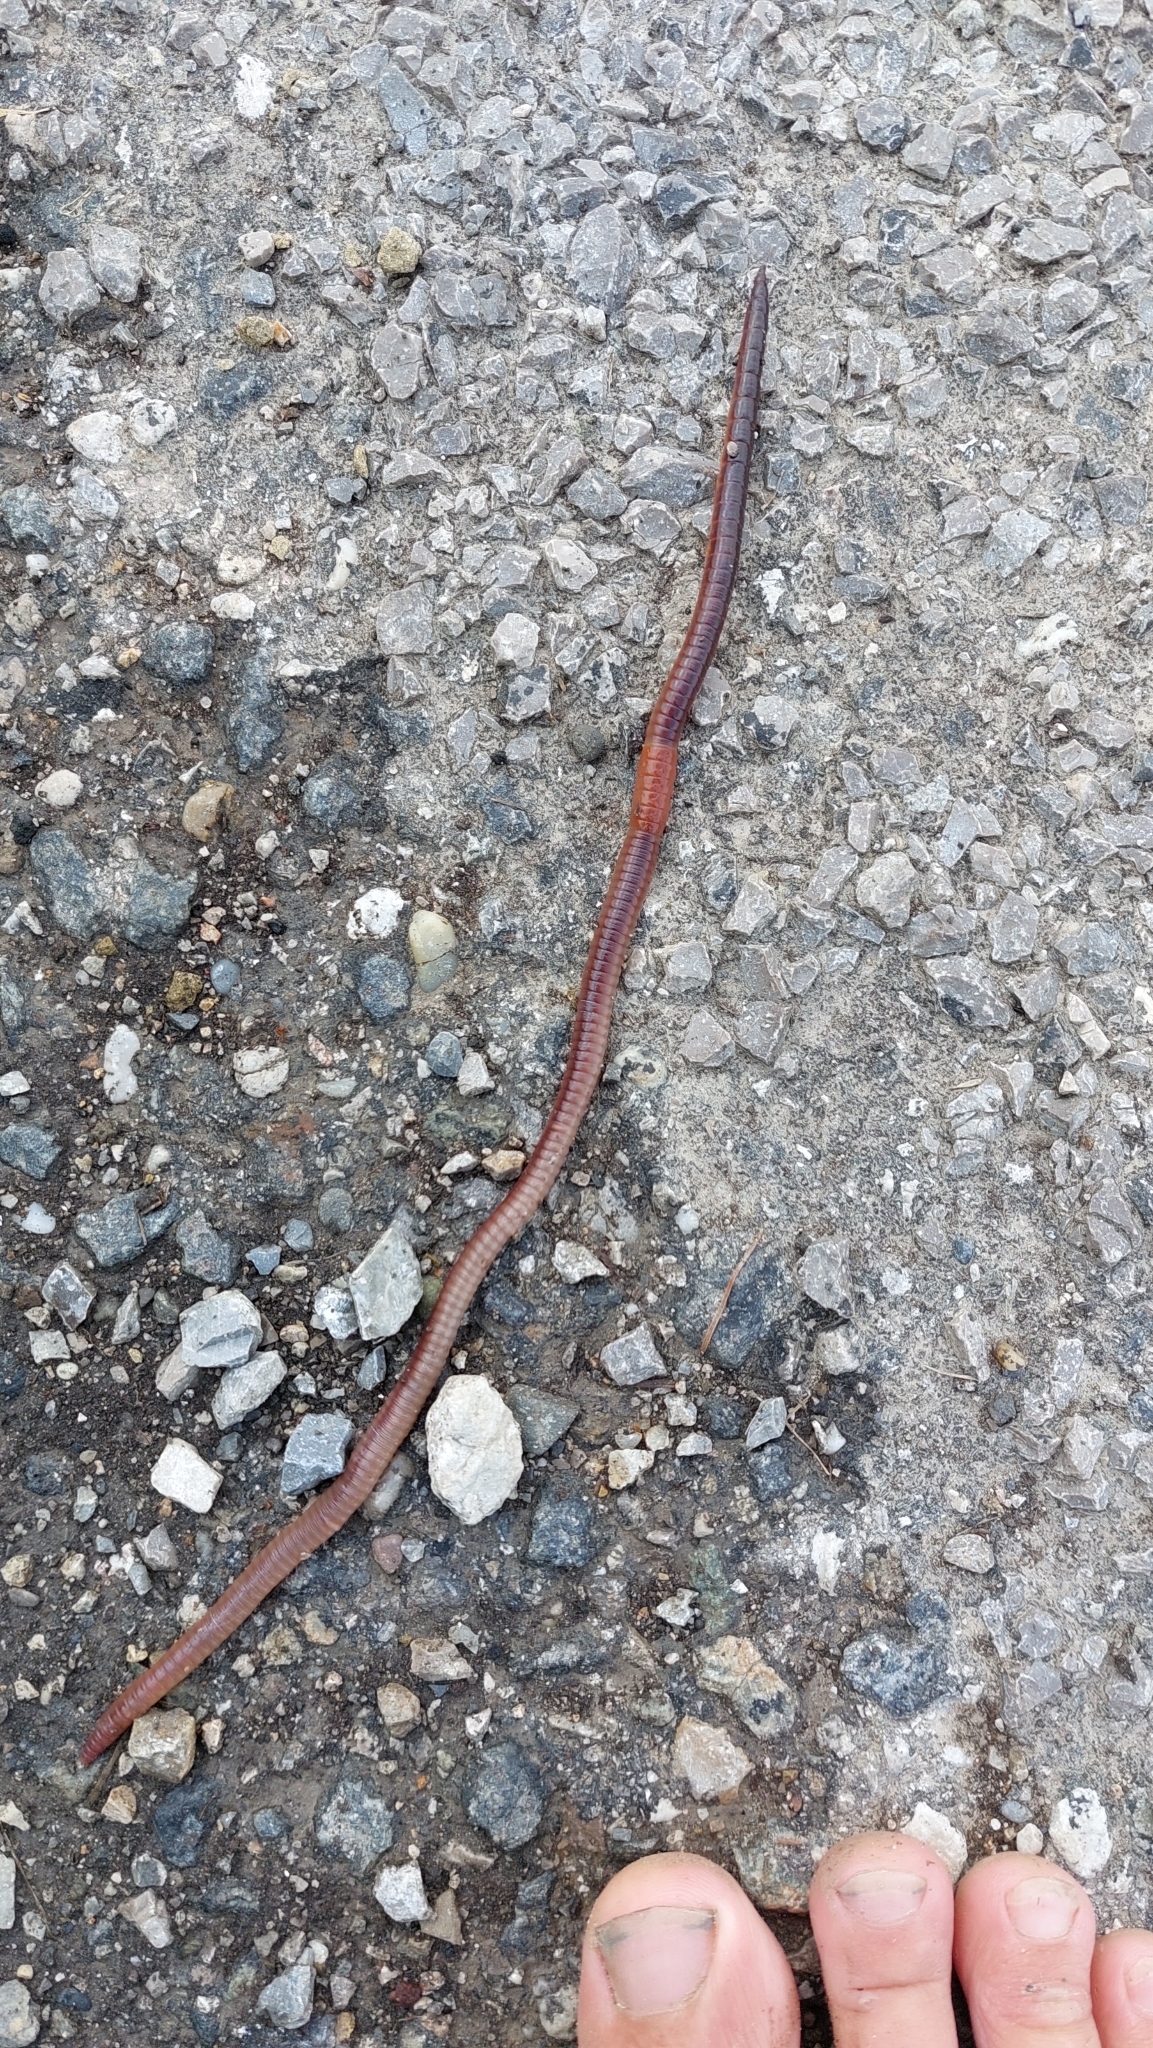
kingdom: Animalia
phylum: Annelida
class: Clitellata
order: Crassiclitellata
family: Lumbricidae
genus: Lumbricus
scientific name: Lumbricus terrestris
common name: Common earthworm
